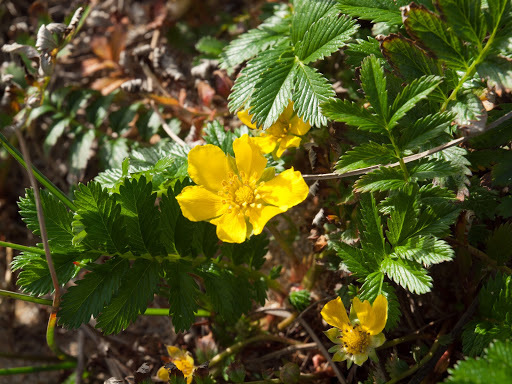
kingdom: Plantae
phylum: Tracheophyta
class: Magnoliopsida
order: Rosales
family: Rosaceae
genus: Argentina
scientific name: Argentina anserina
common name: Common silverweed
